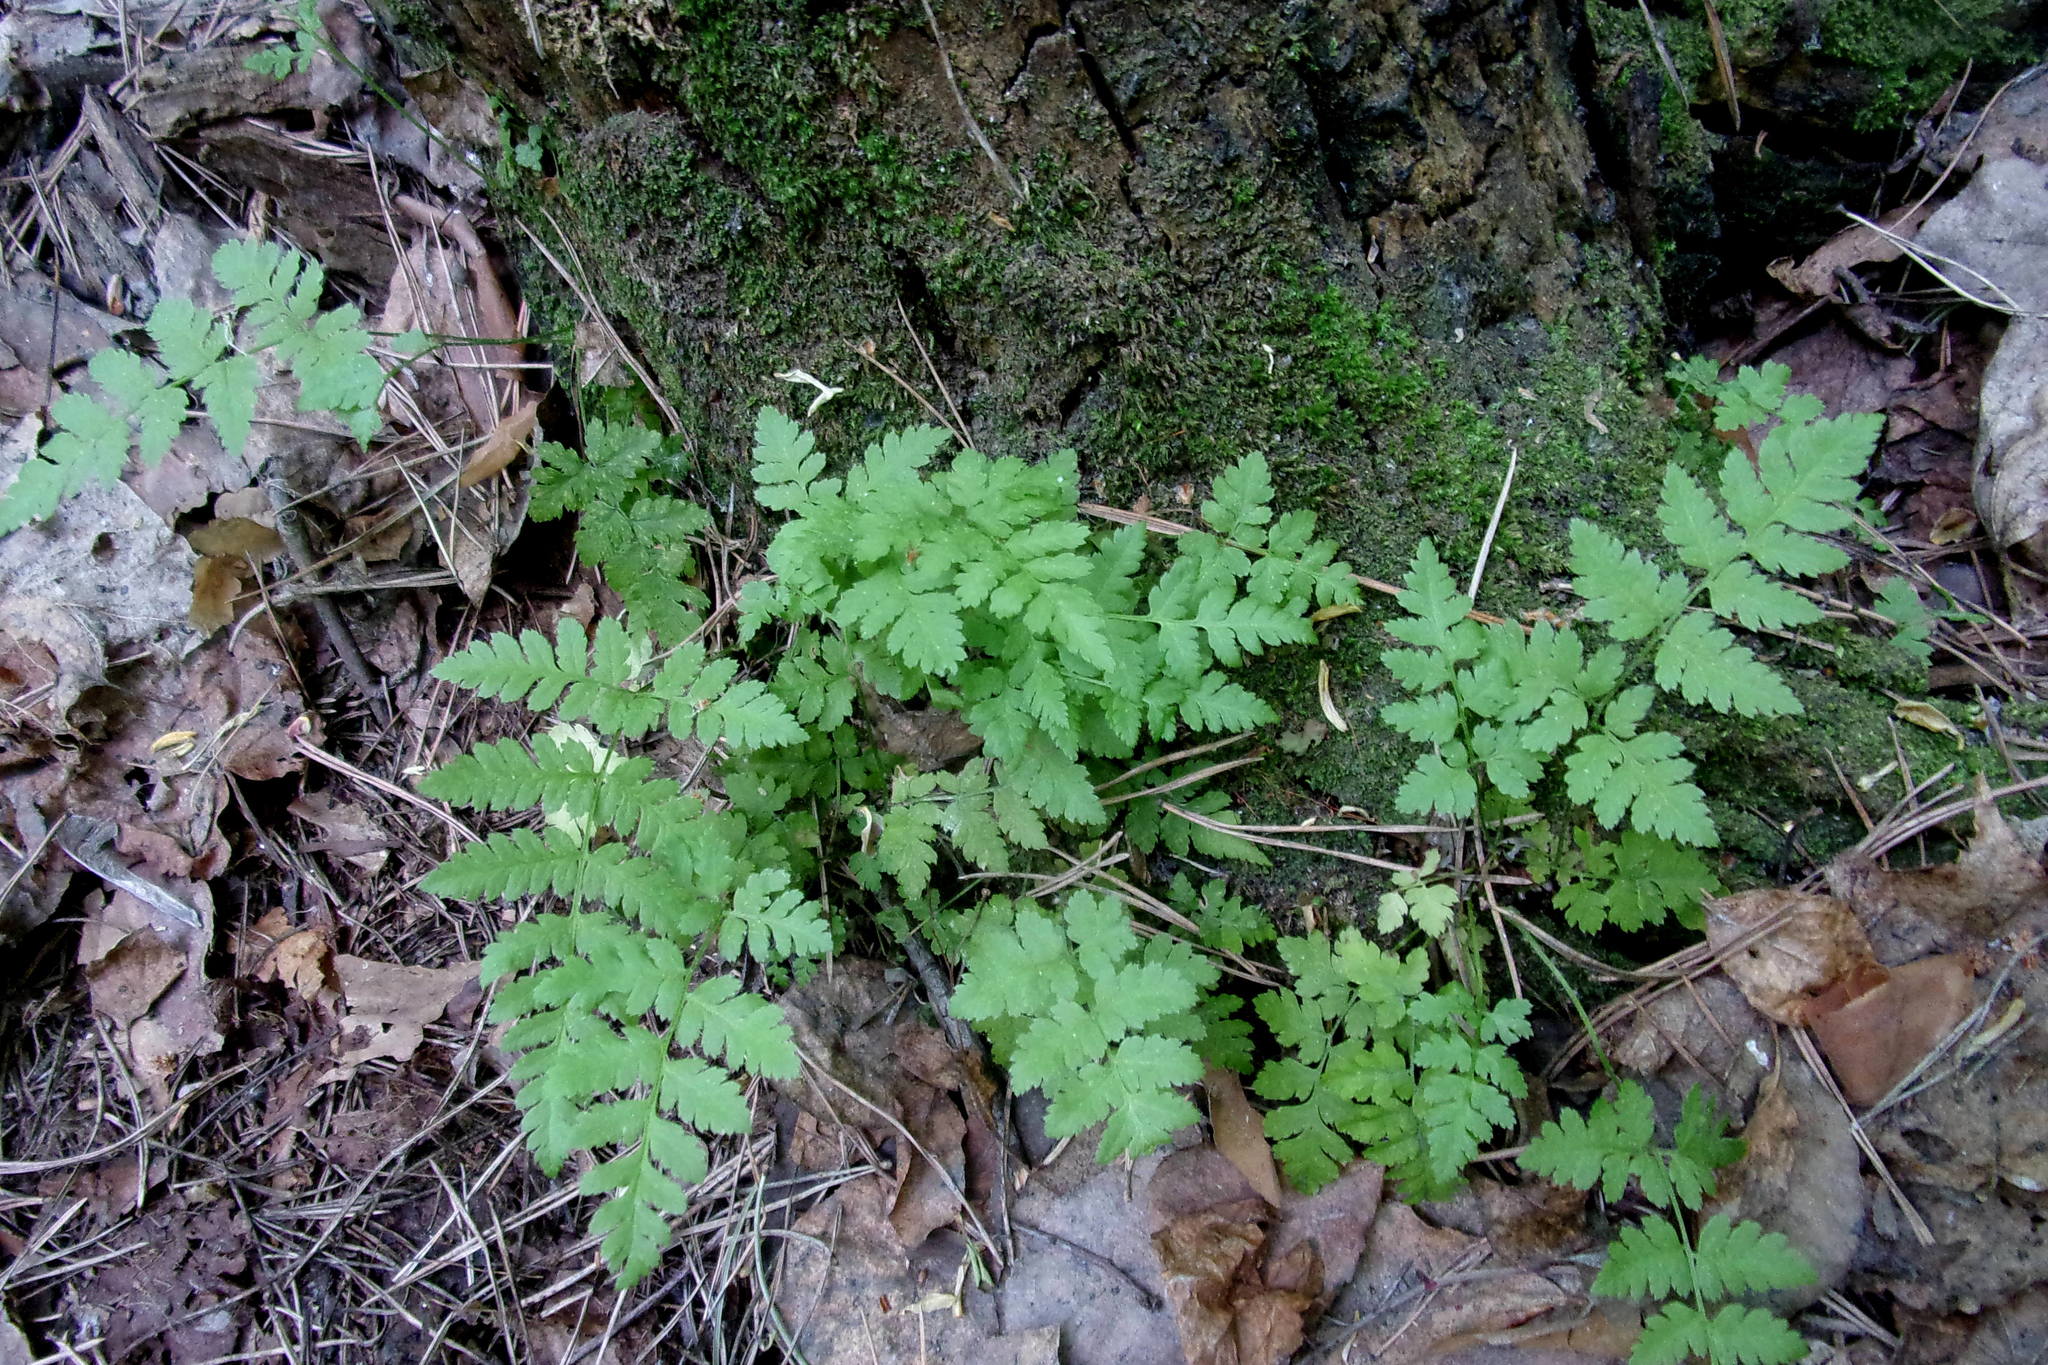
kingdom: Plantae
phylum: Tracheophyta
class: Polypodiopsida
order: Polypodiales
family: Dryopteridaceae
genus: Dryopteris
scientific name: Dryopteris carthusiana
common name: Narrow buckler-fern
